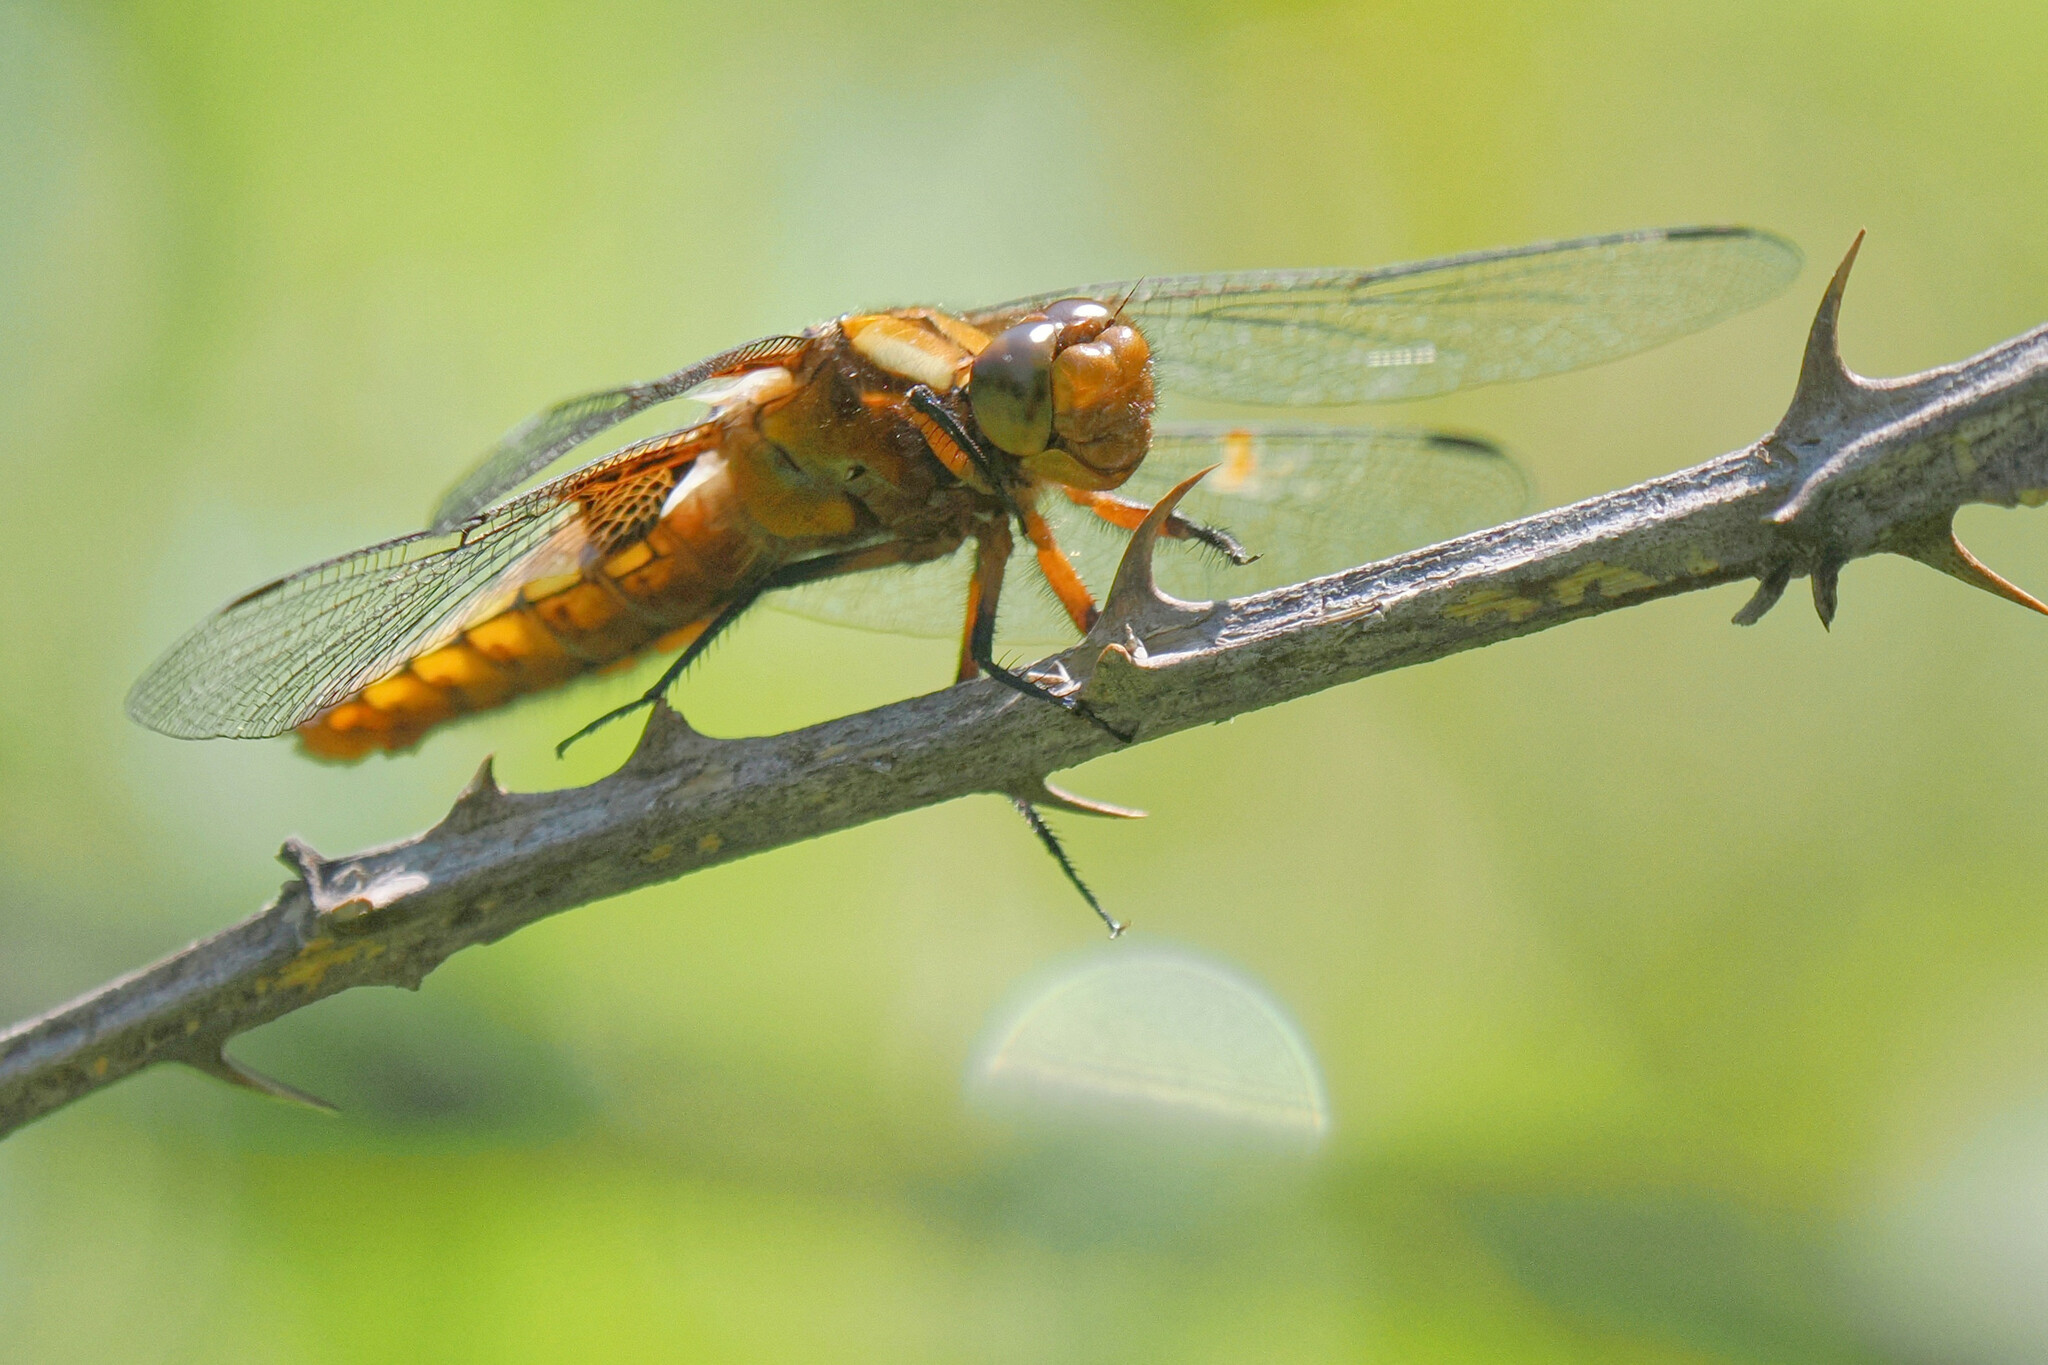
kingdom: Animalia
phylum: Arthropoda
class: Insecta
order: Odonata
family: Libellulidae
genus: Libellula
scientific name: Libellula depressa
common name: Broad-bodied chaser
